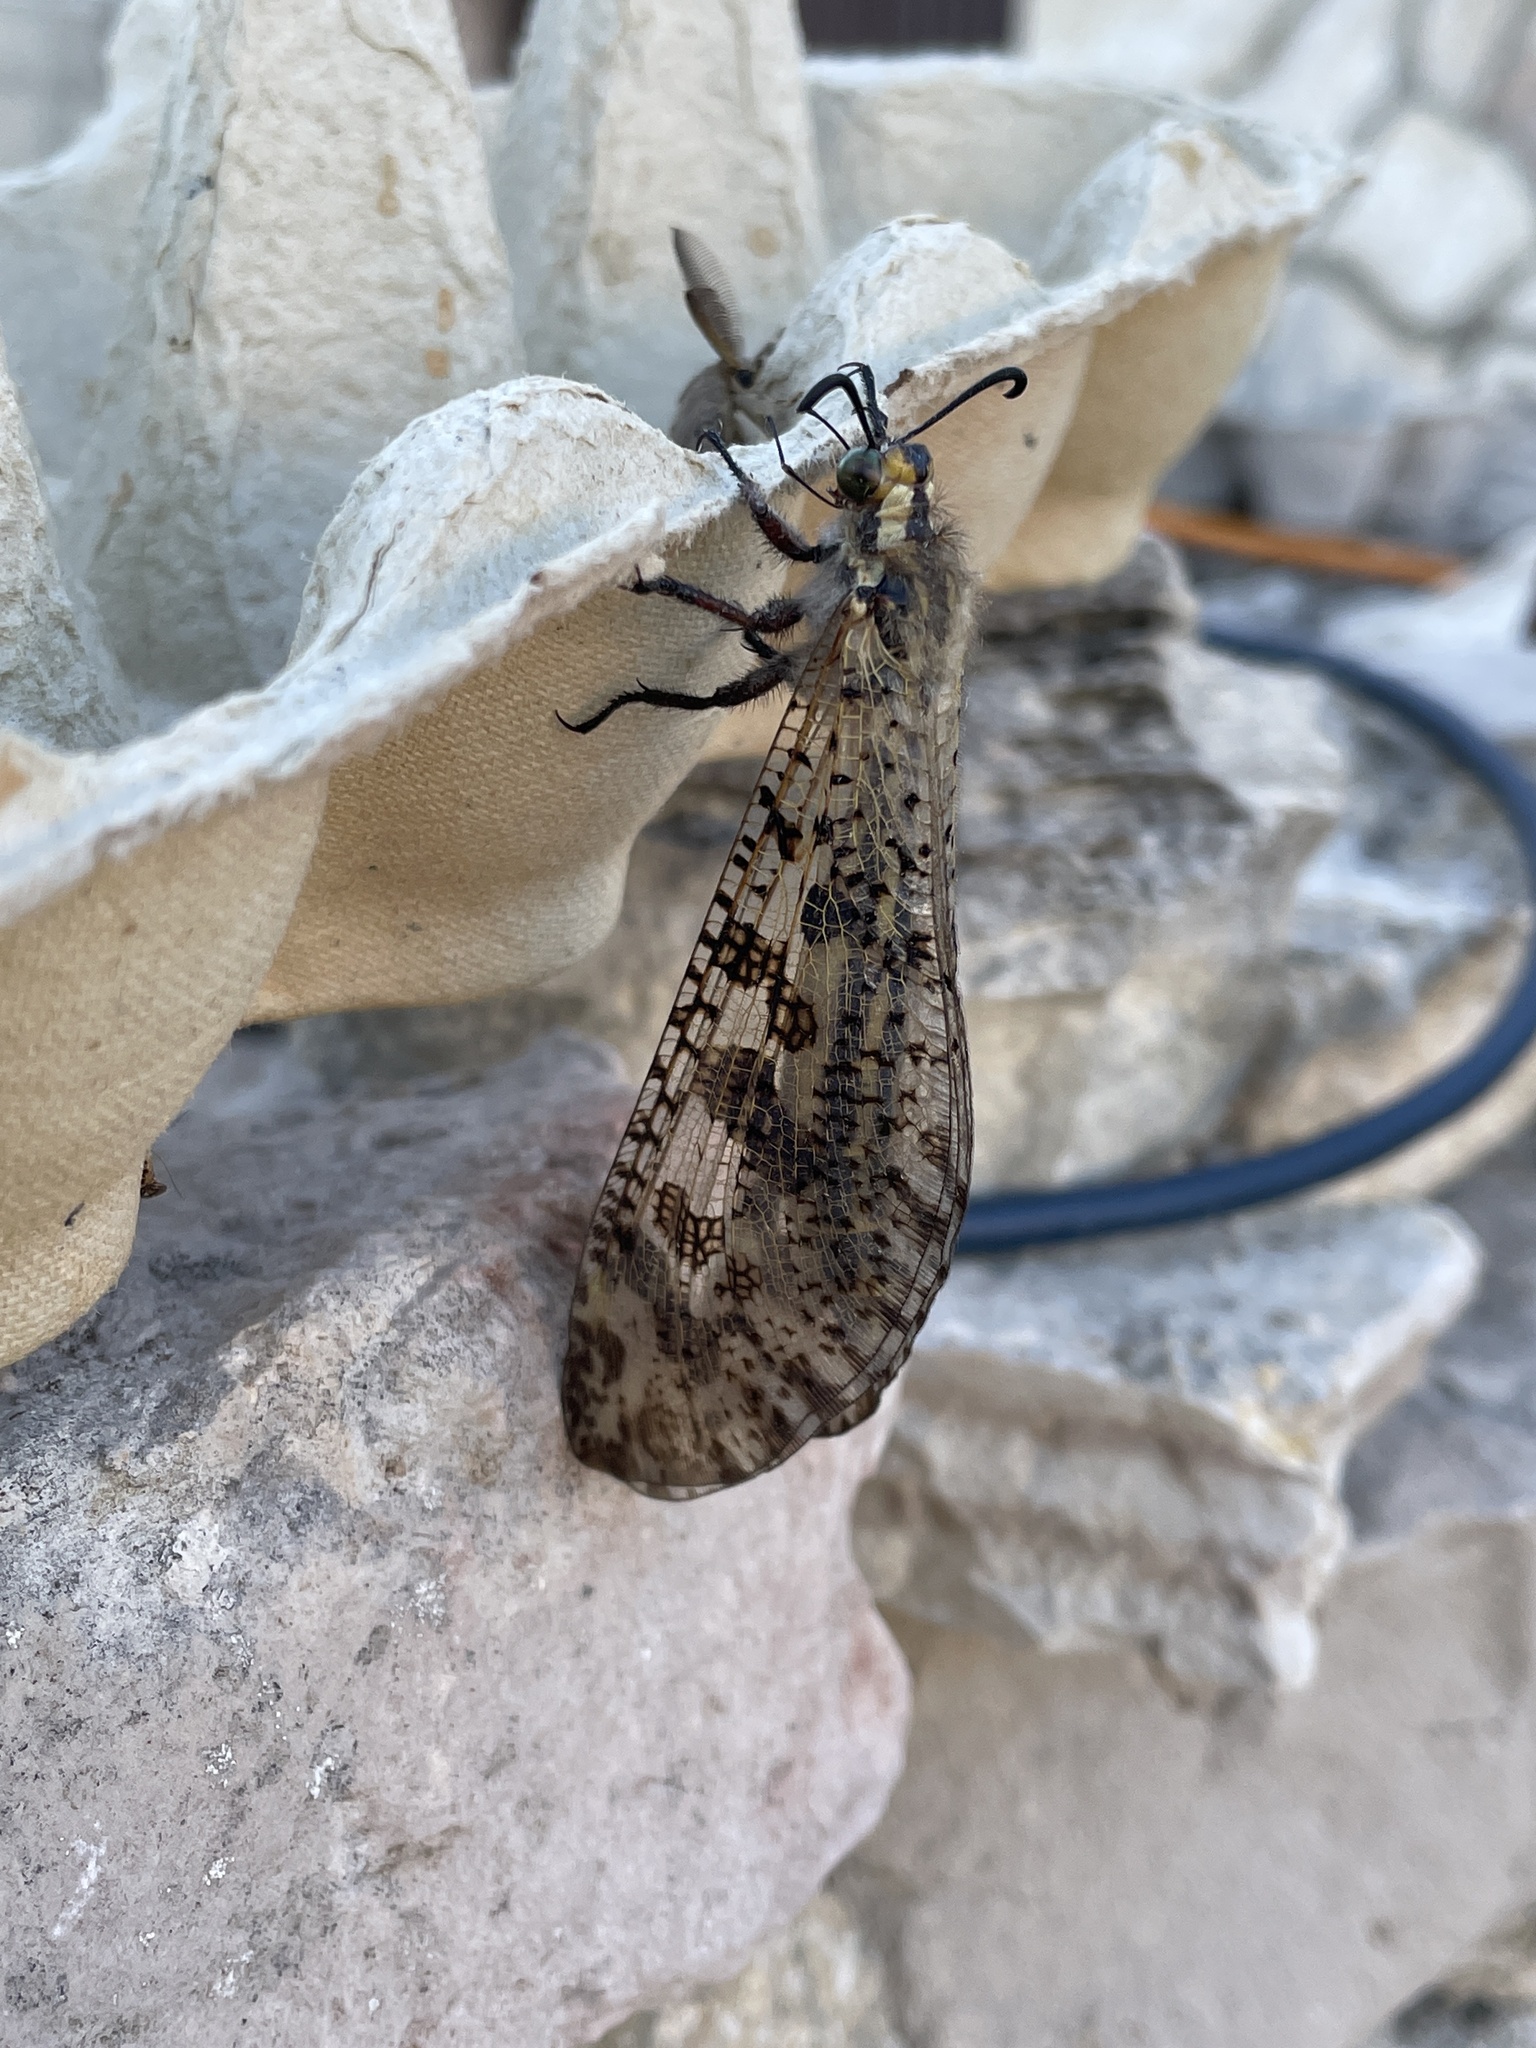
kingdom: Animalia
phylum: Arthropoda
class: Insecta
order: Neuroptera
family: Myrmeleontidae
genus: Palpares
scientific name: Palpares libelluloides
